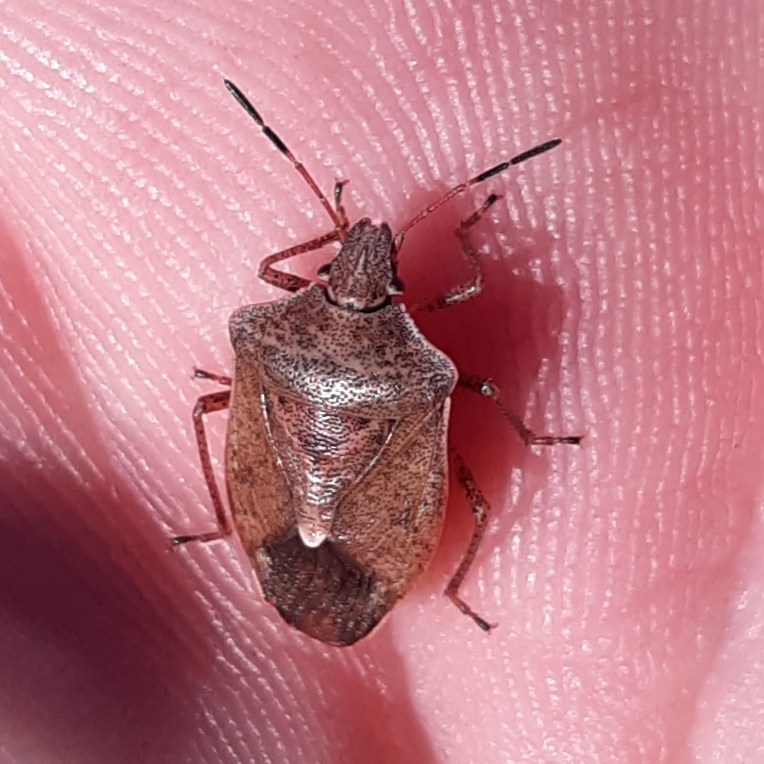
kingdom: Animalia
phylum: Arthropoda
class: Insecta
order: Hemiptera
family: Pentatomidae
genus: Euschistus
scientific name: Euschistus servus
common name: Brown stink bug
